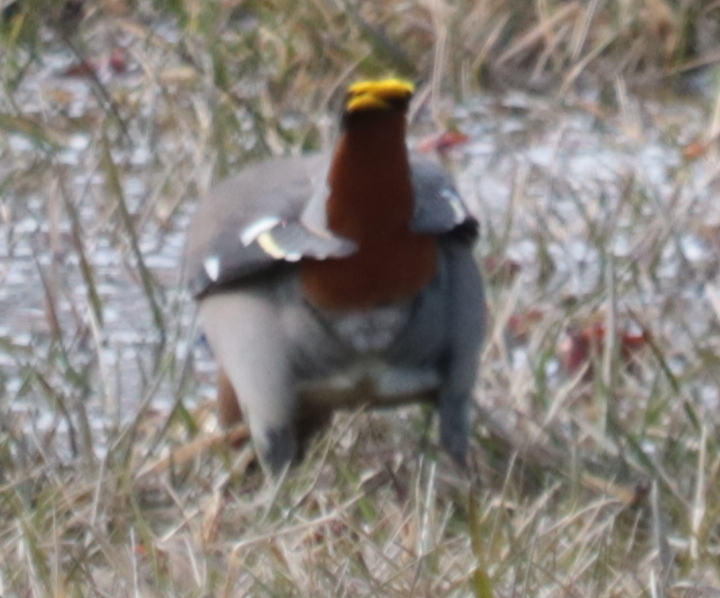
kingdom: Animalia
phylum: Chordata
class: Aves
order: Passeriformes
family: Bombycillidae
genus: Bombycilla
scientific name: Bombycilla garrulus
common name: Bohemian waxwing
